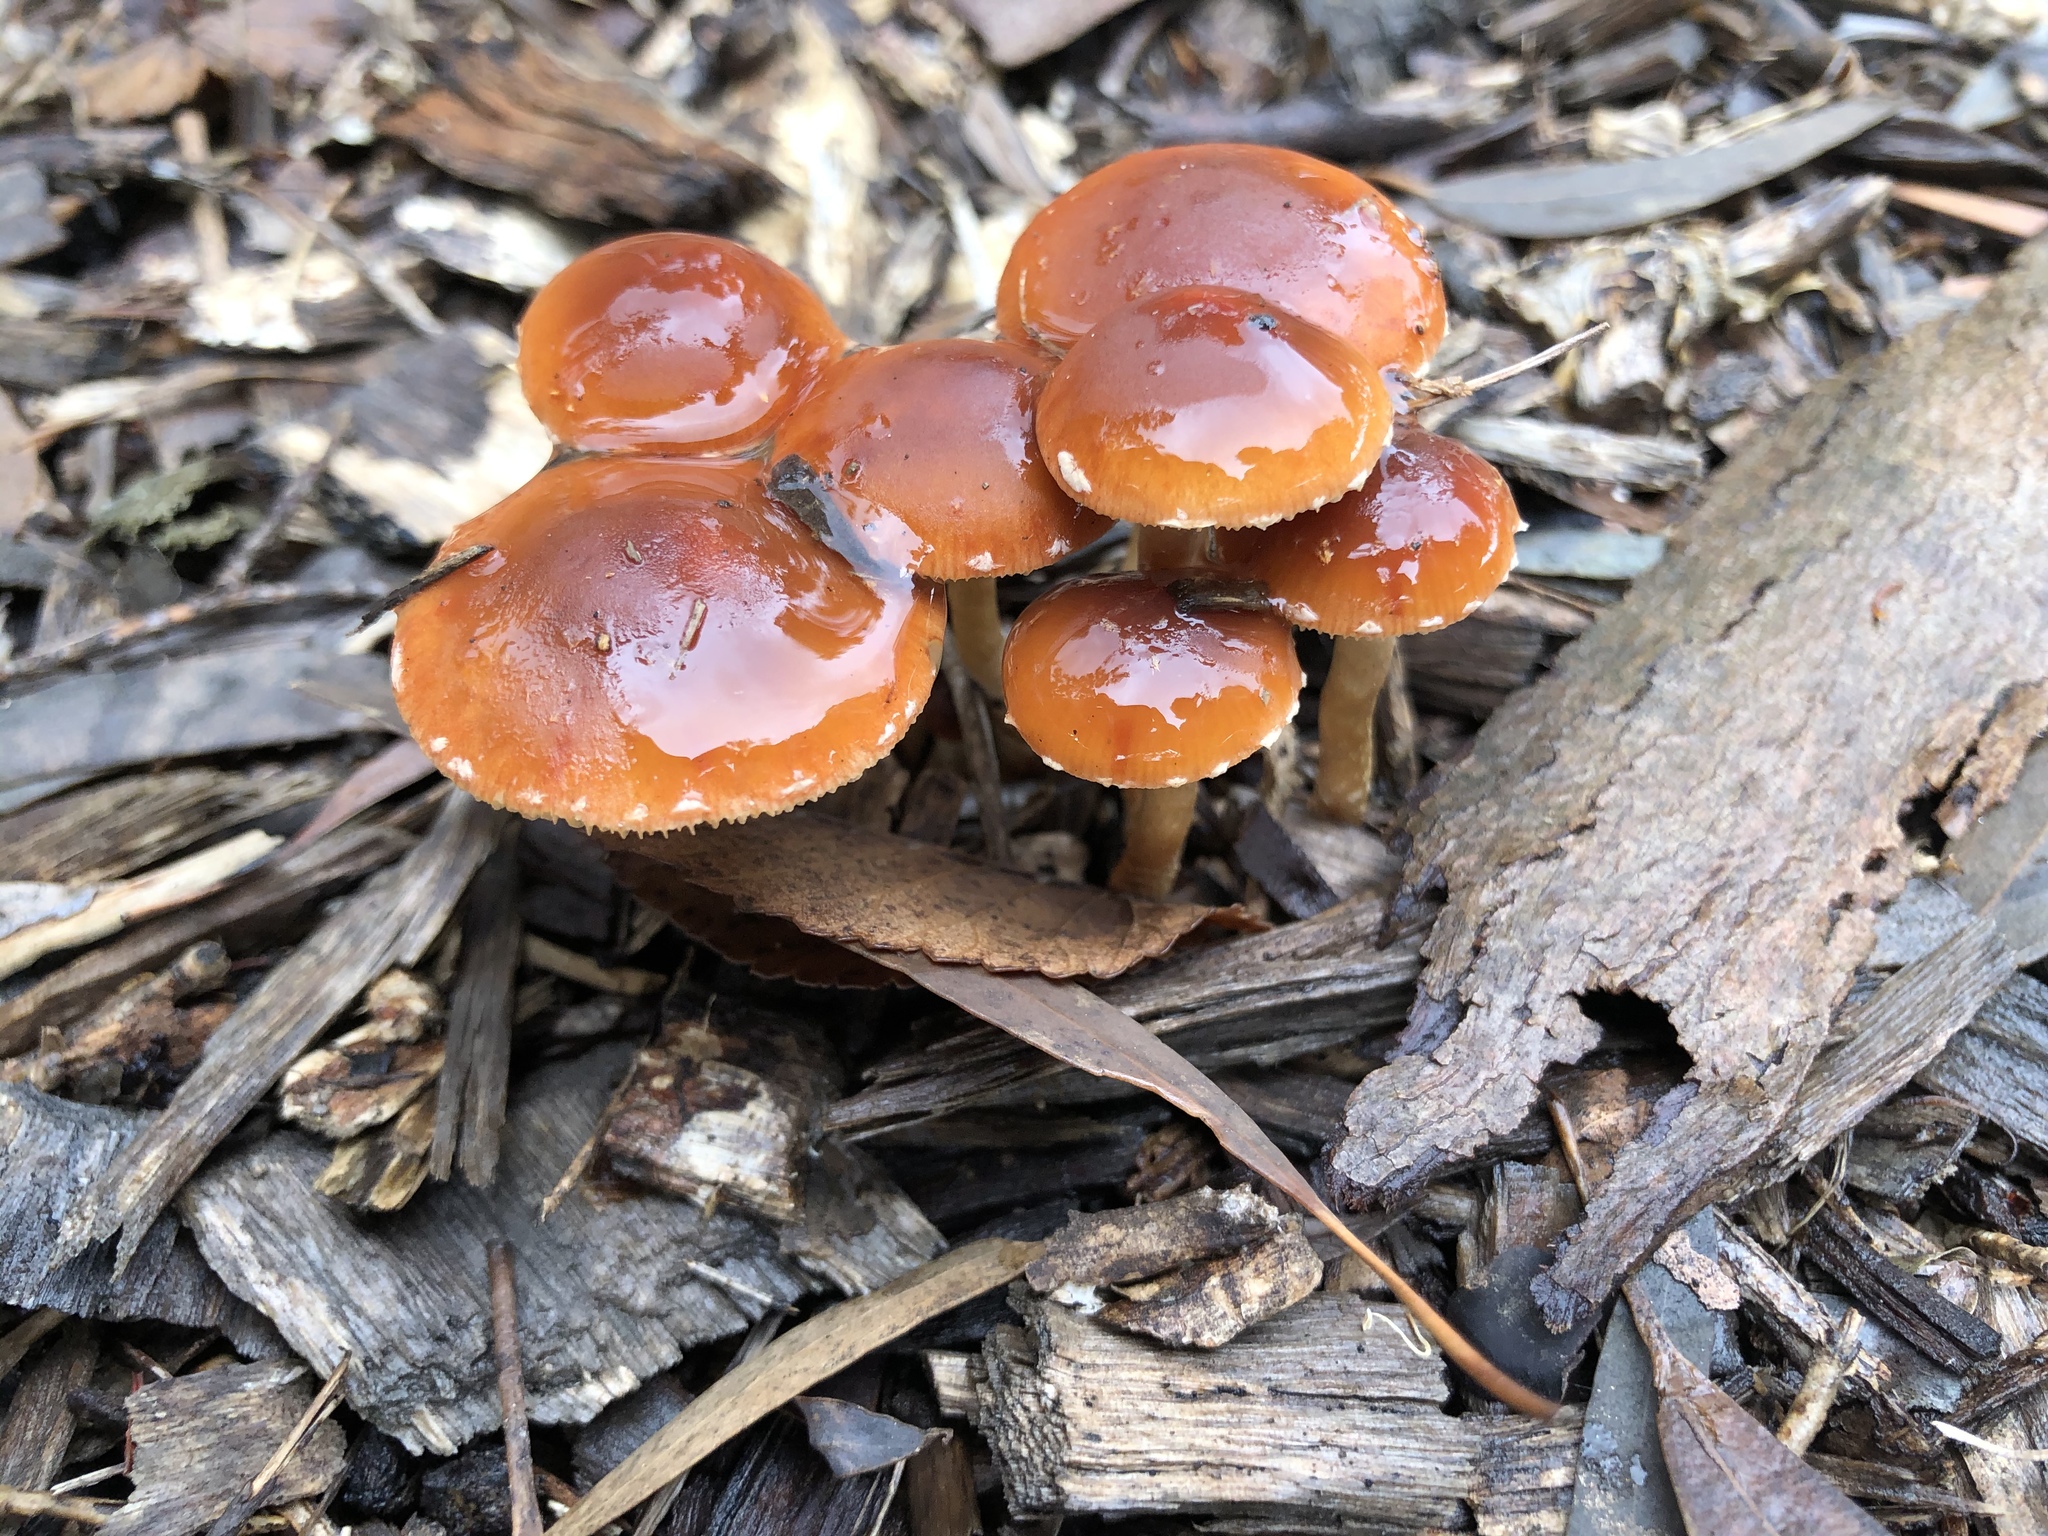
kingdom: Fungi
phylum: Basidiomycota
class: Agaricomycetes
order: Agaricales
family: Strophariaceae
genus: Leratiomyces
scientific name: Leratiomyces ceres
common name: Redlead roundhead
